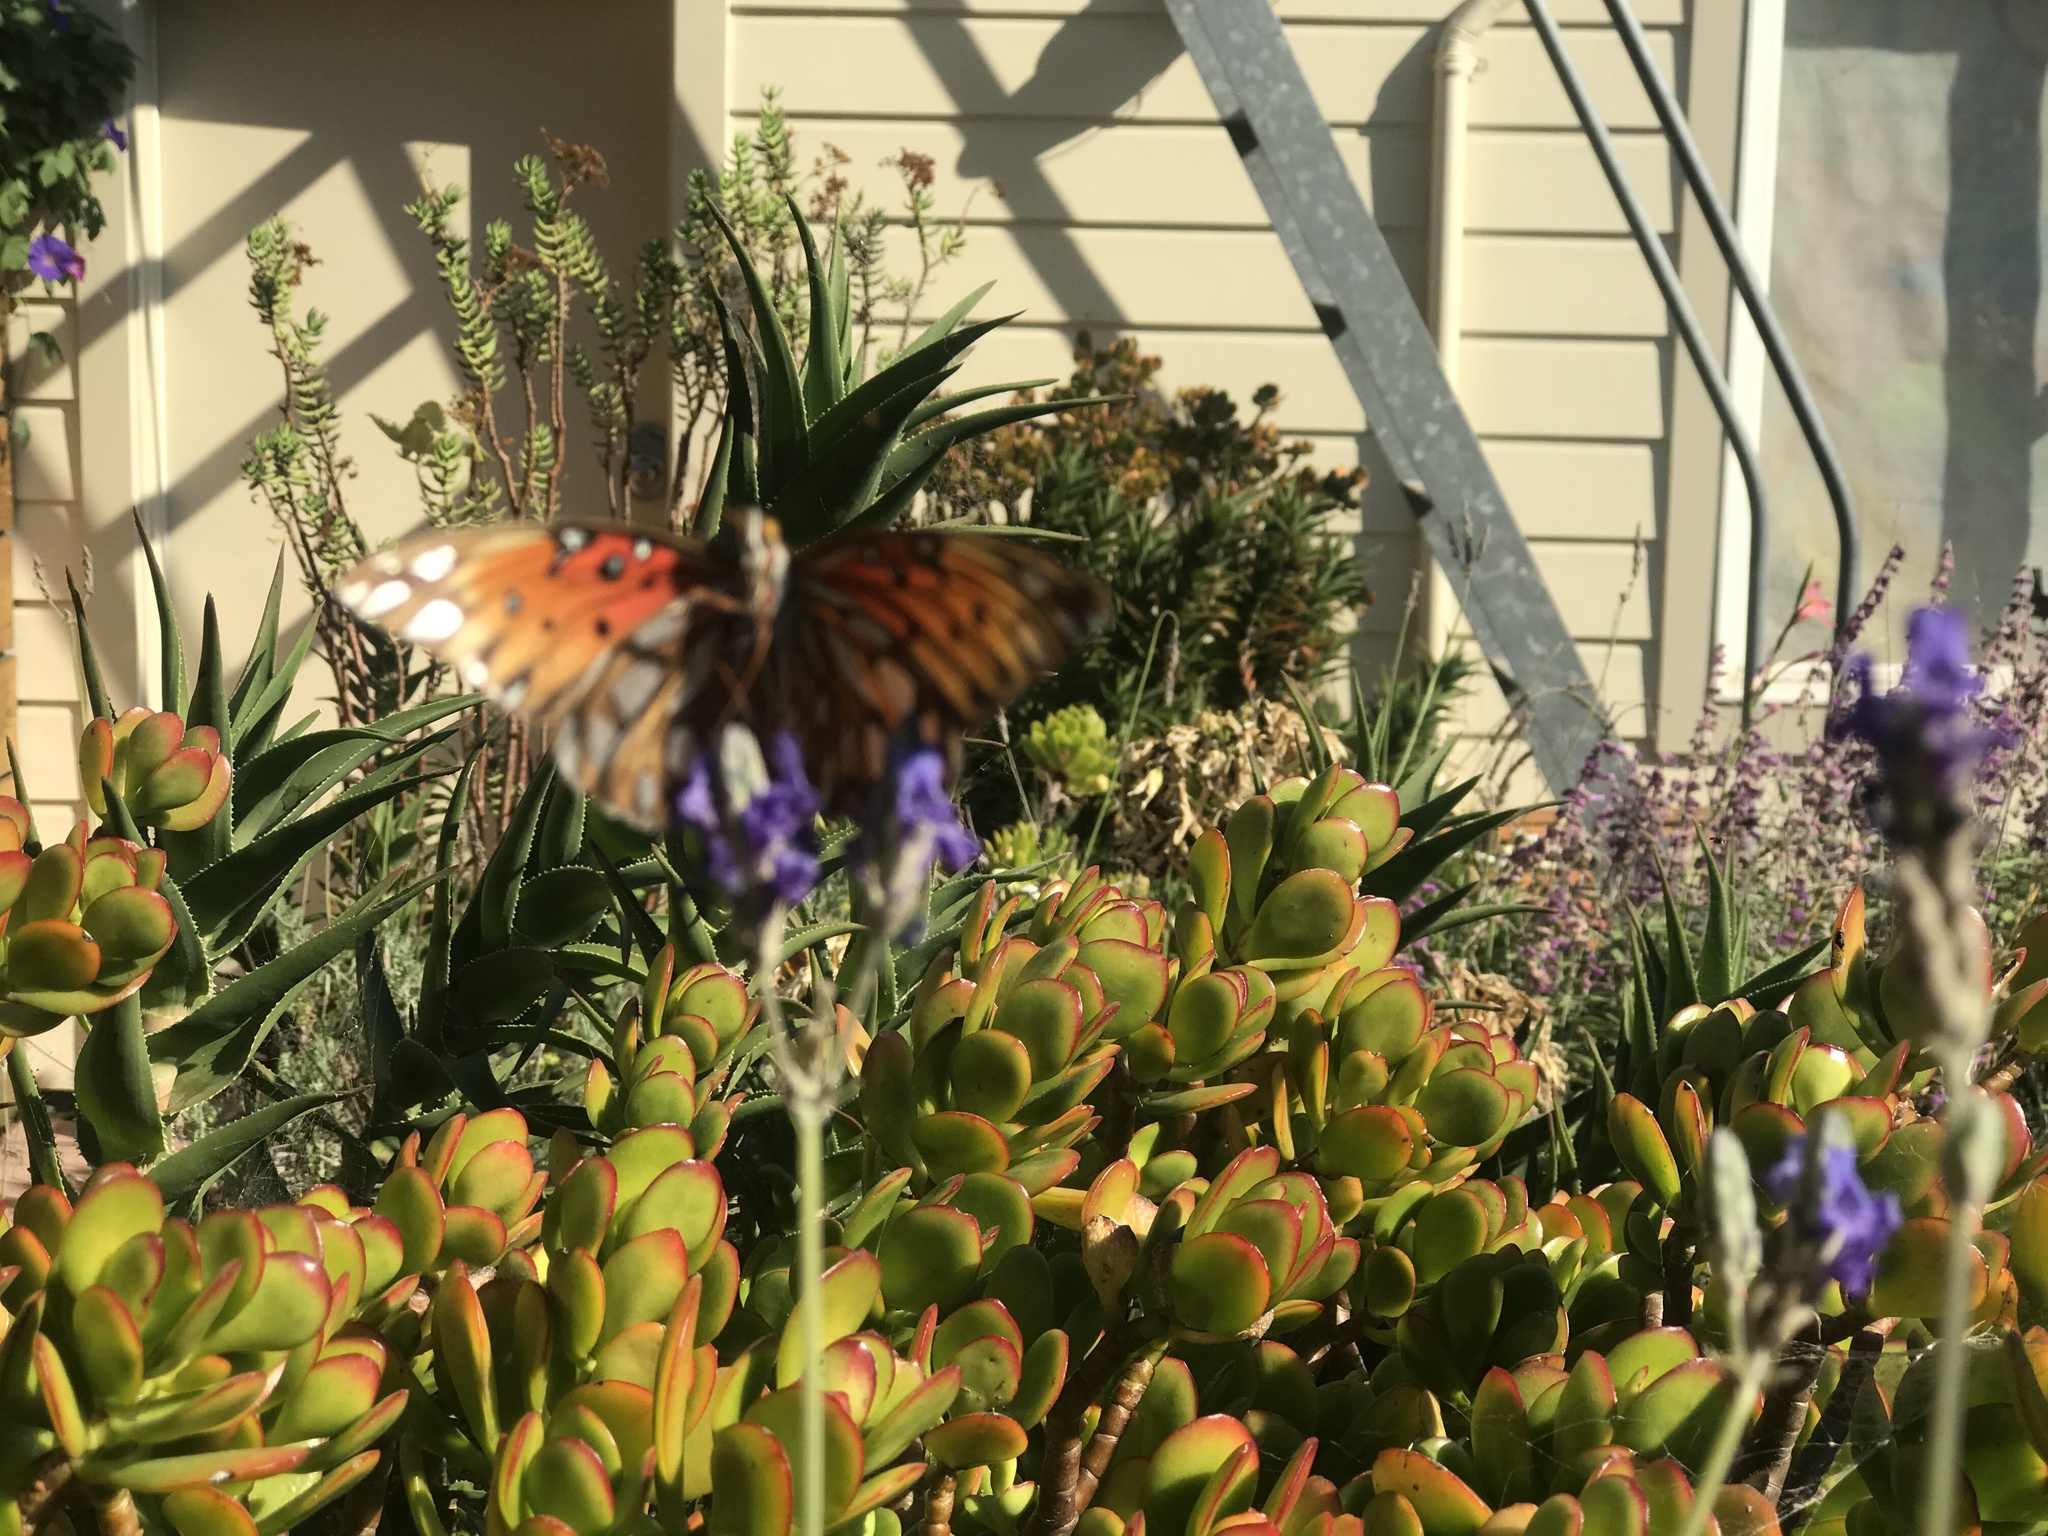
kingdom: Animalia
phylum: Arthropoda
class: Insecta
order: Lepidoptera
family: Nymphalidae
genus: Dione
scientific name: Dione vanillae
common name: Gulf fritillary
